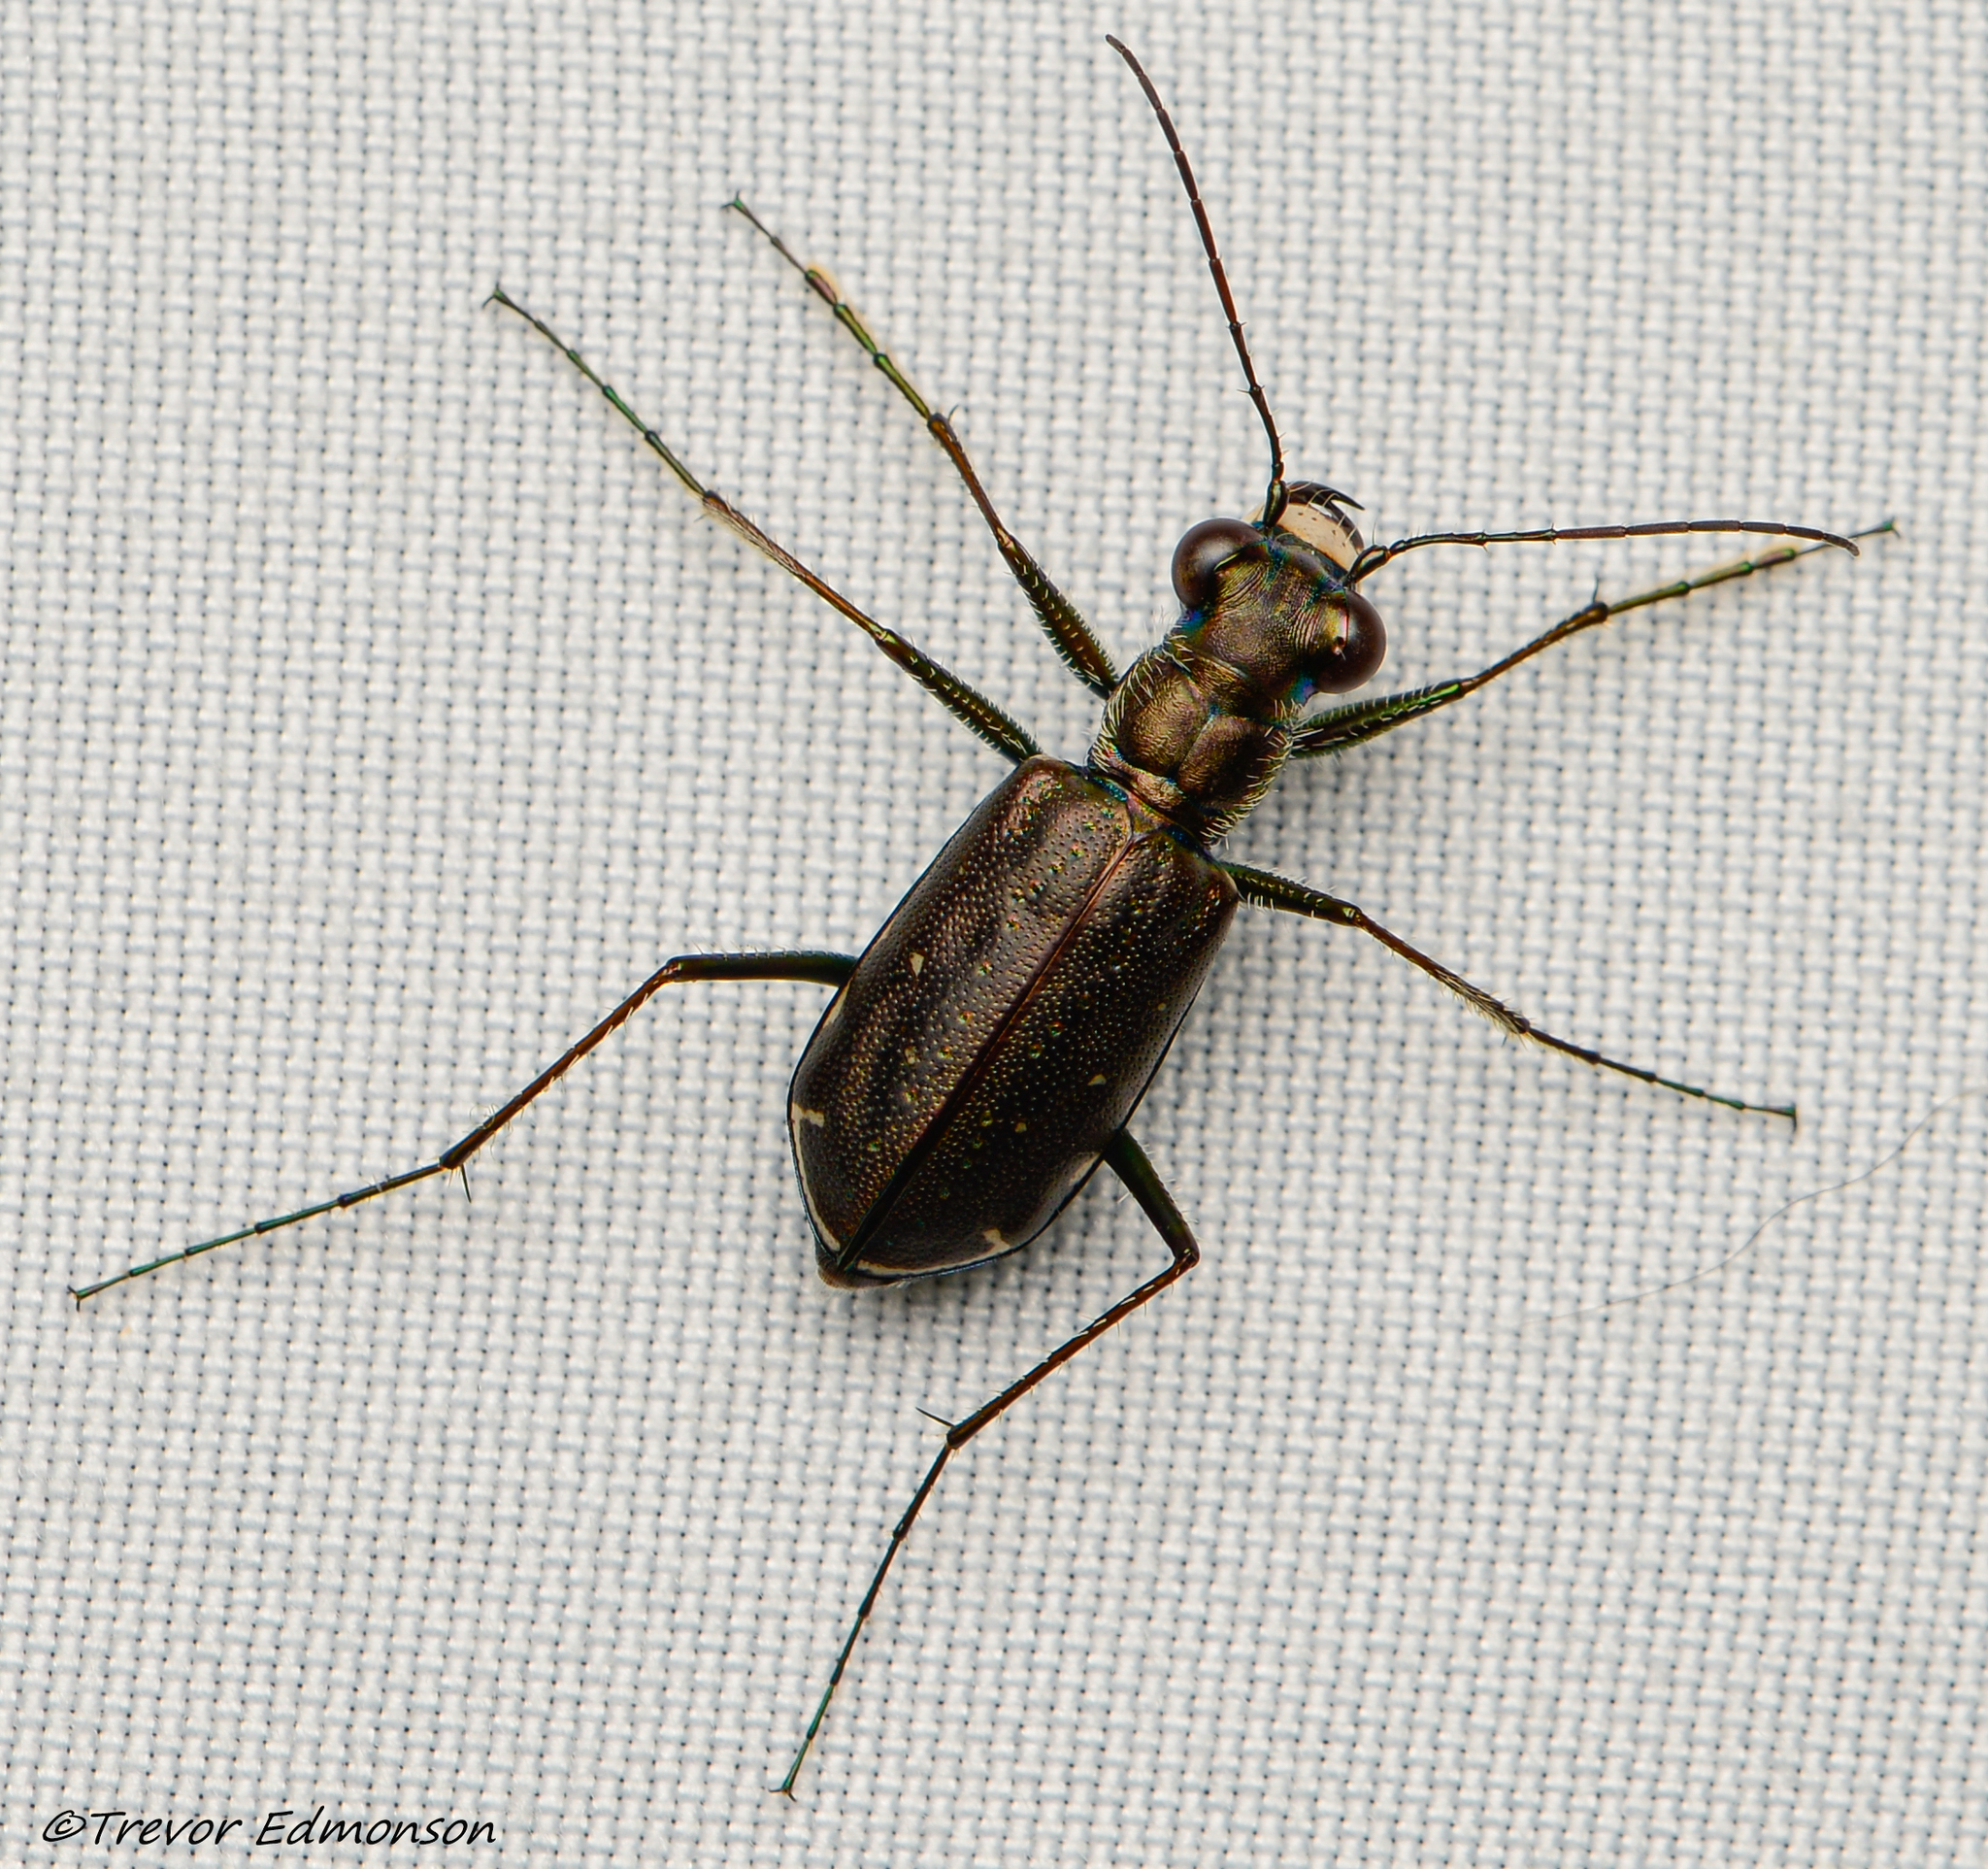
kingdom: Animalia
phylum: Arthropoda
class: Insecta
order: Coleoptera
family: Carabidae
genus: Cicindela
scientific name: Cicindela punctulata
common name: Punctured tiger beetle
